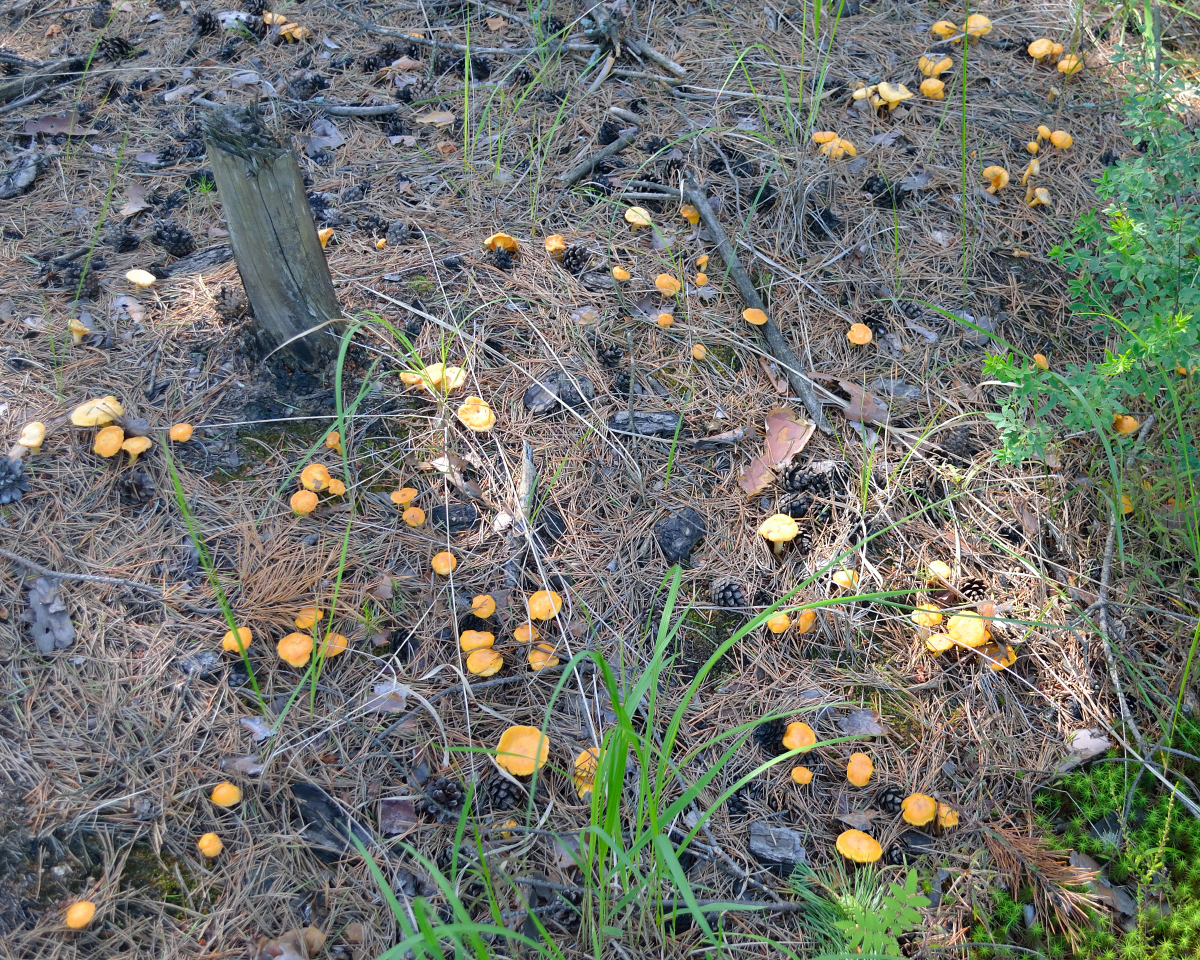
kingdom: Fungi
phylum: Basidiomycota
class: Agaricomycetes
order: Cantharellales
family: Hydnaceae
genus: Cantharellus
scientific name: Cantharellus cibarius
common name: Chanterelle
